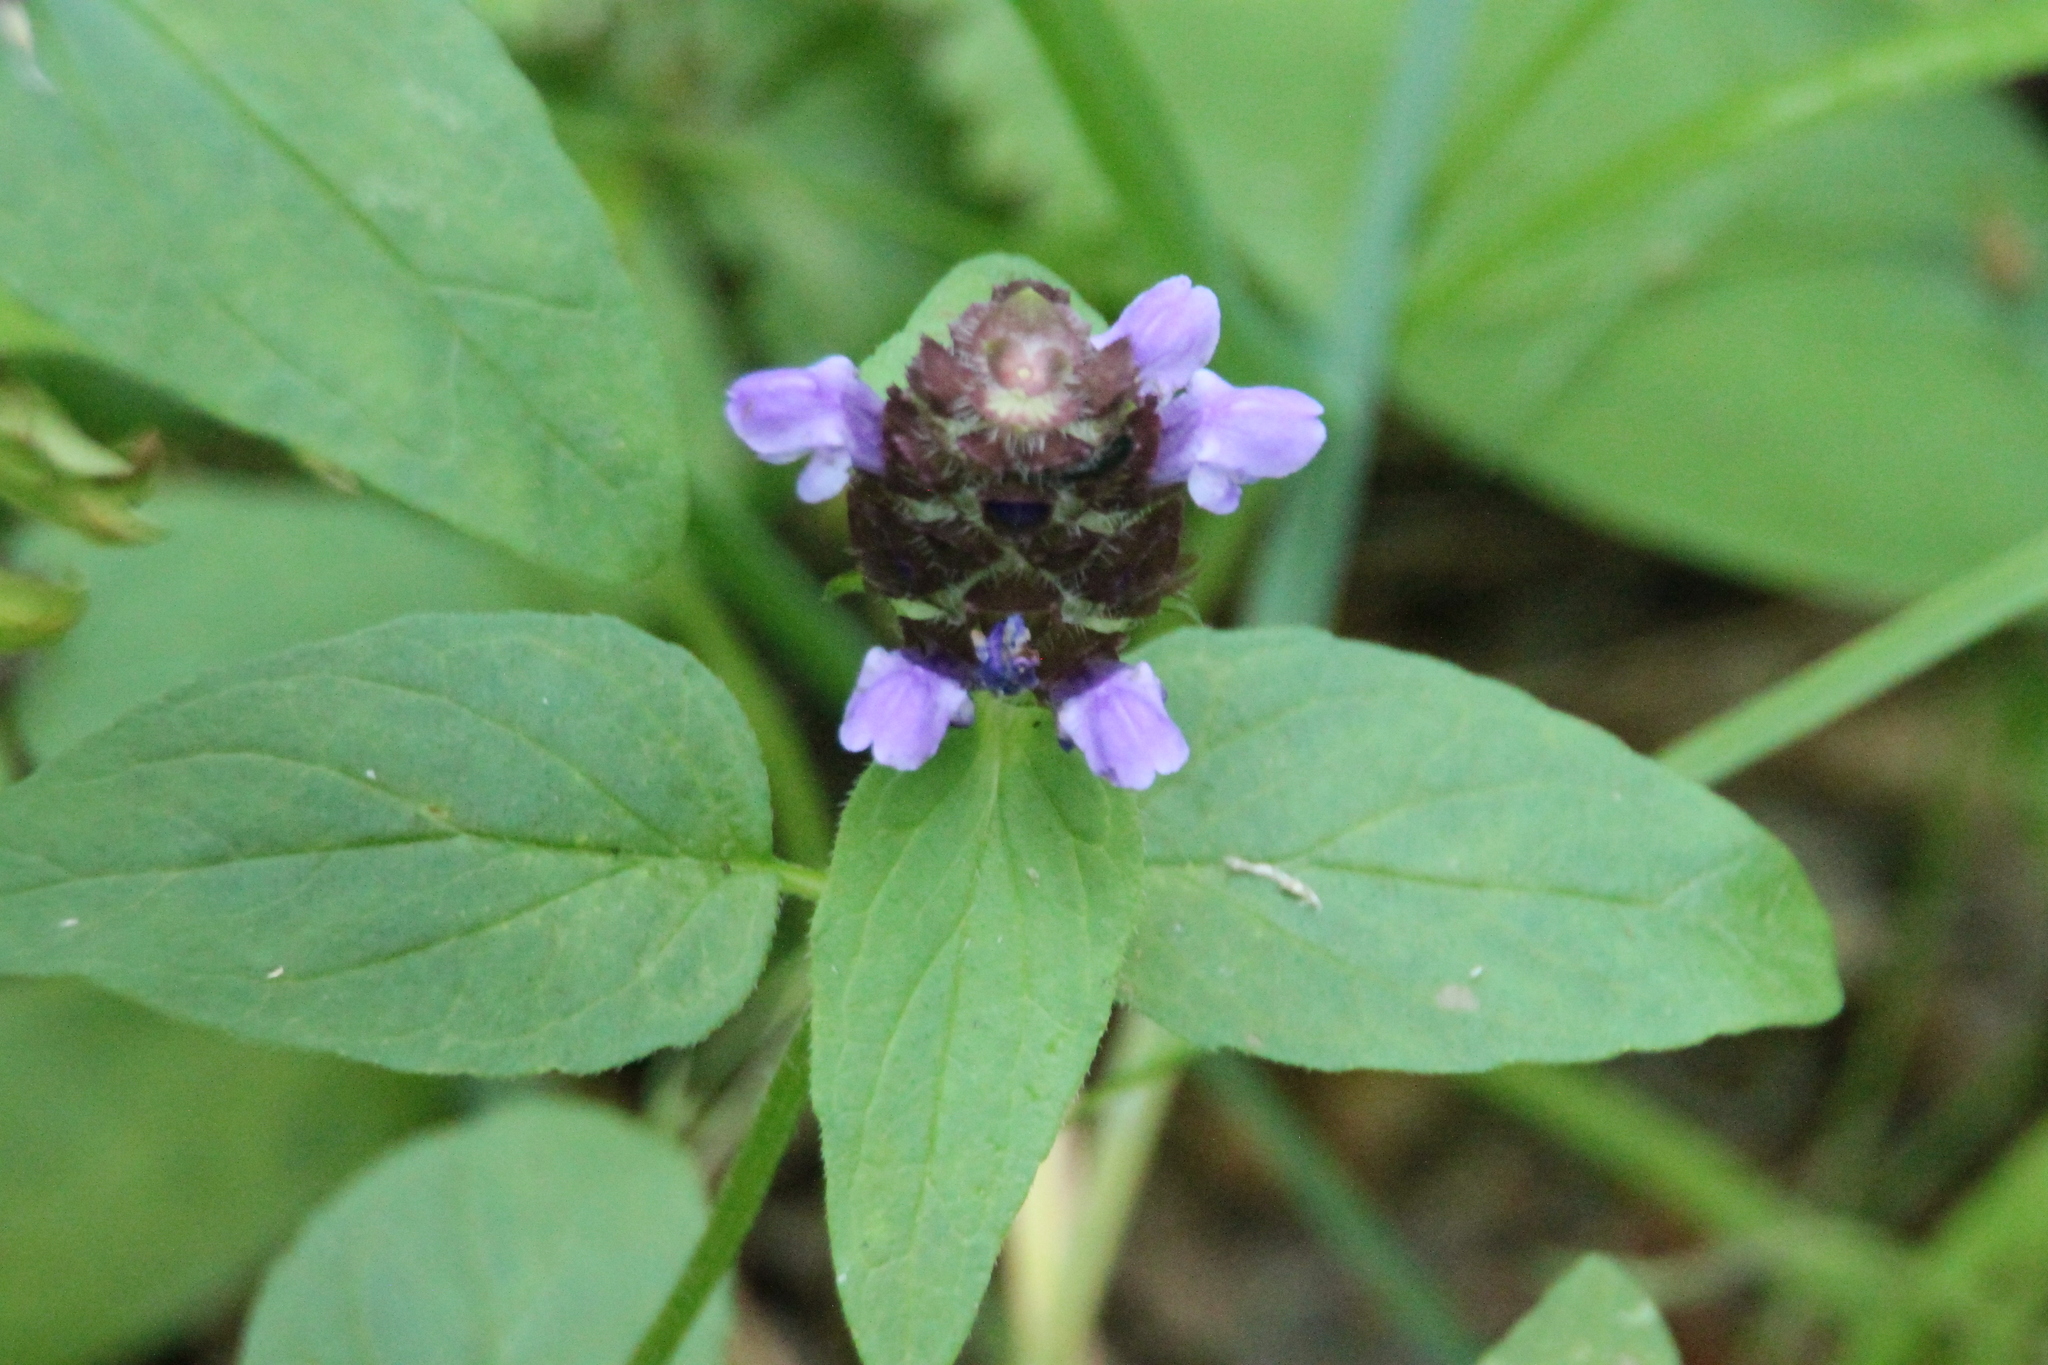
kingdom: Plantae
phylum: Tracheophyta
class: Magnoliopsida
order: Lamiales
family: Lamiaceae
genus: Prunella
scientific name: Prunella vulgaris
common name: Heal-all
